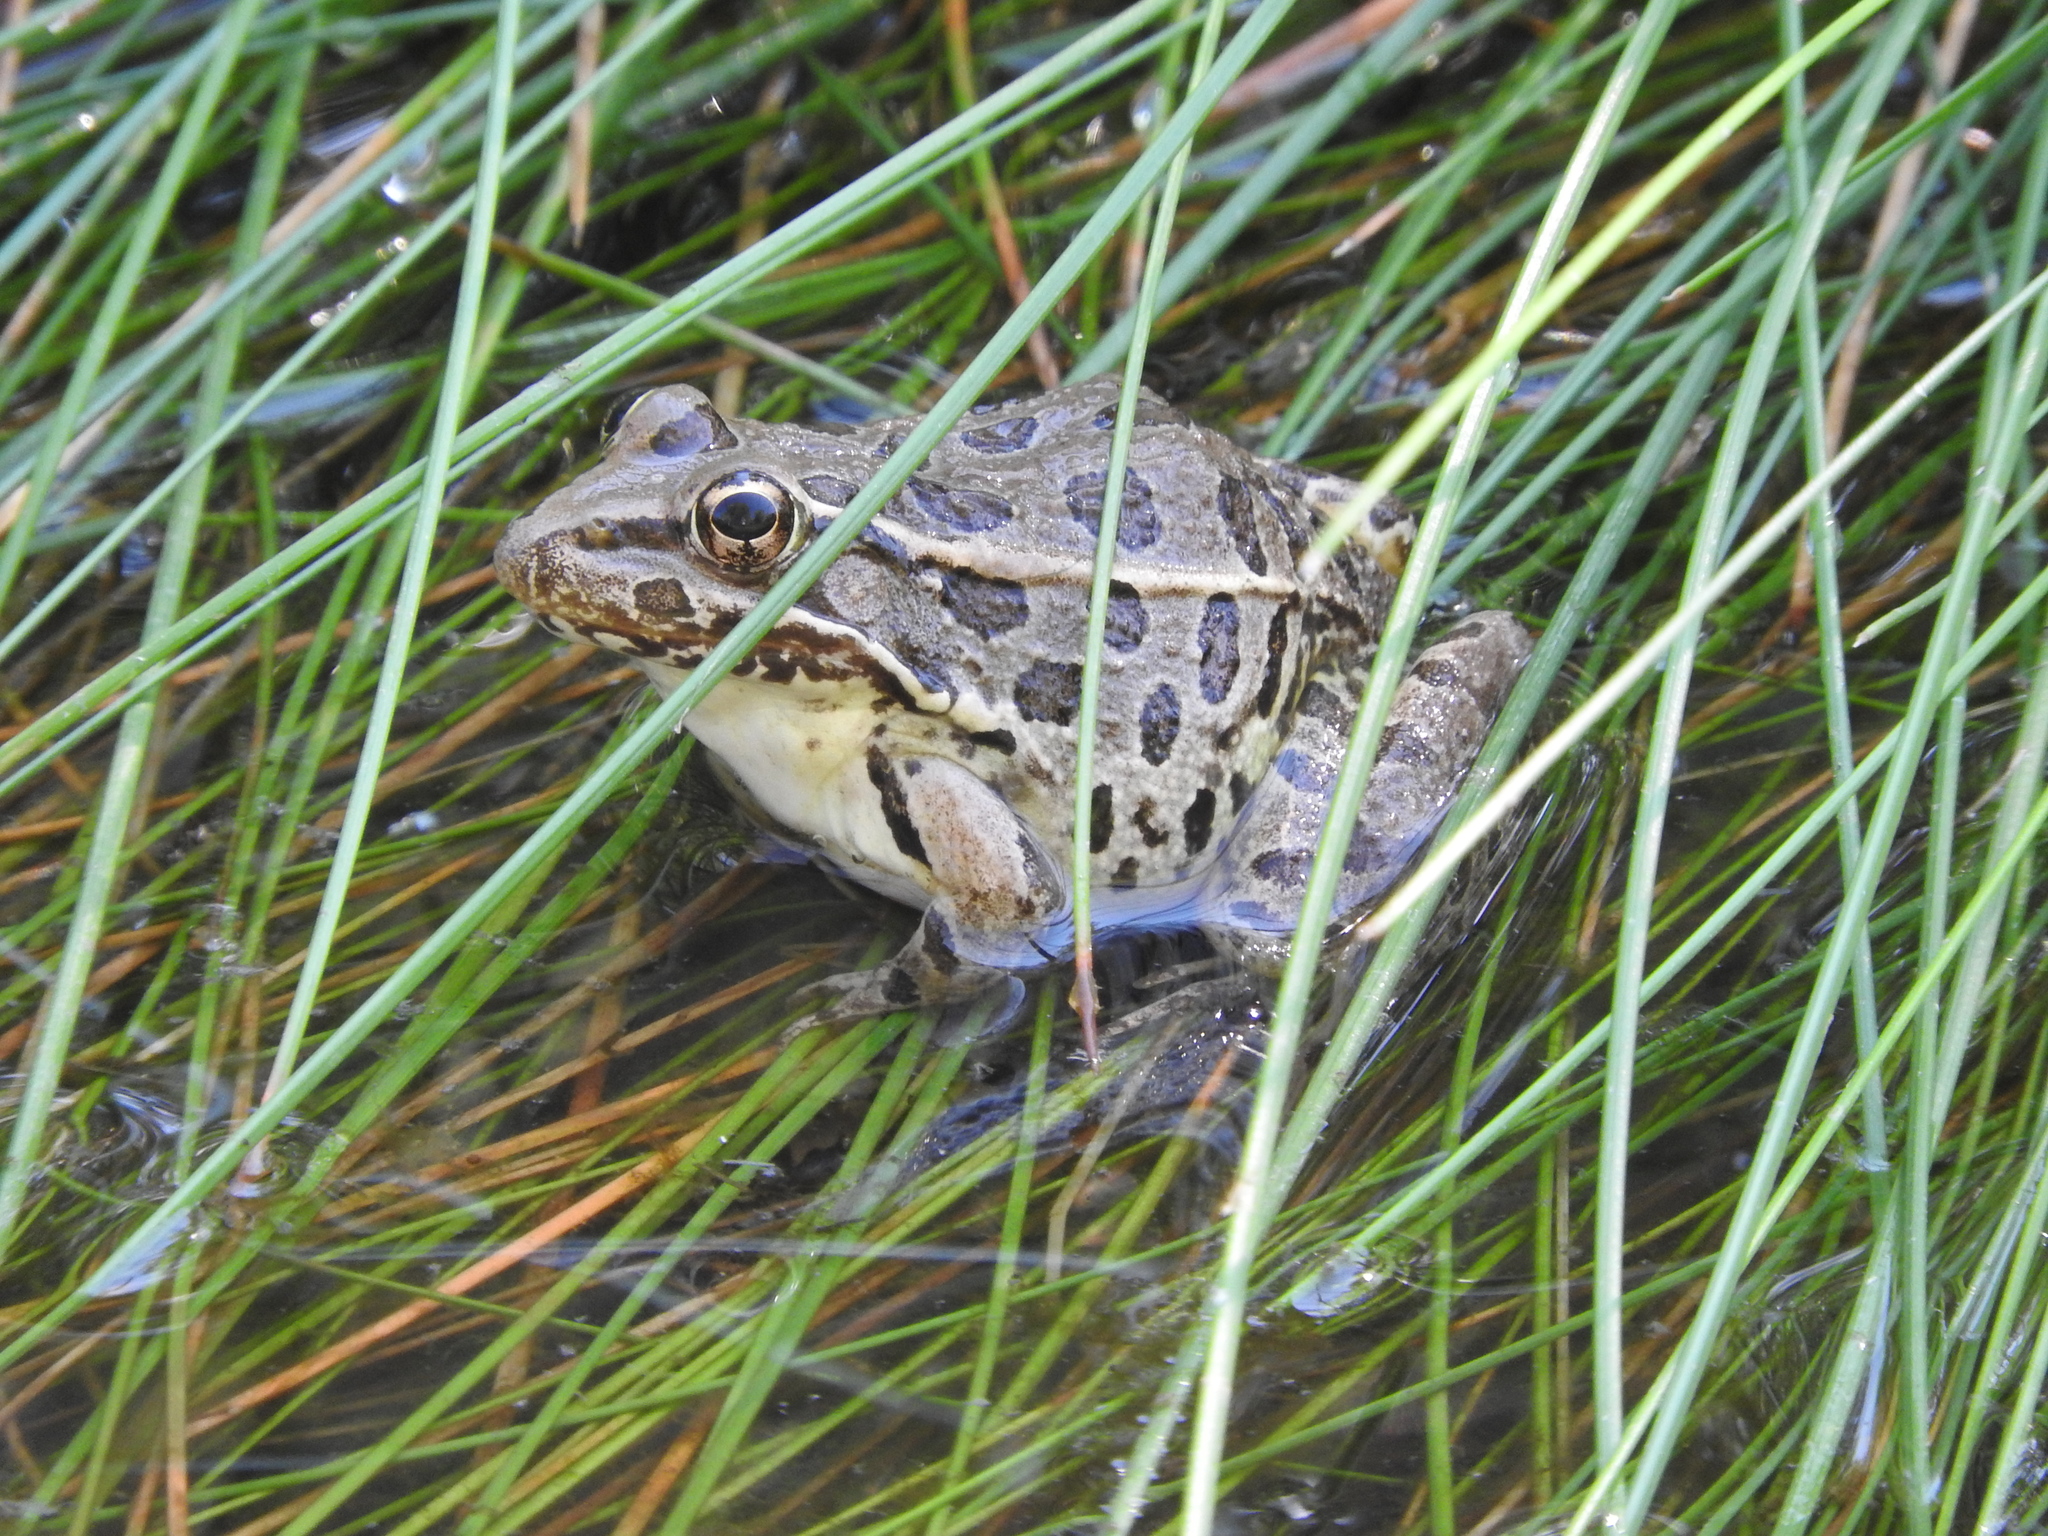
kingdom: Animalia
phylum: Chordata
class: Amphibia
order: Anura
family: Ranidae
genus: Lithobates
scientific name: Lithobates yavapaiensis
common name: Lowland leopard frog
